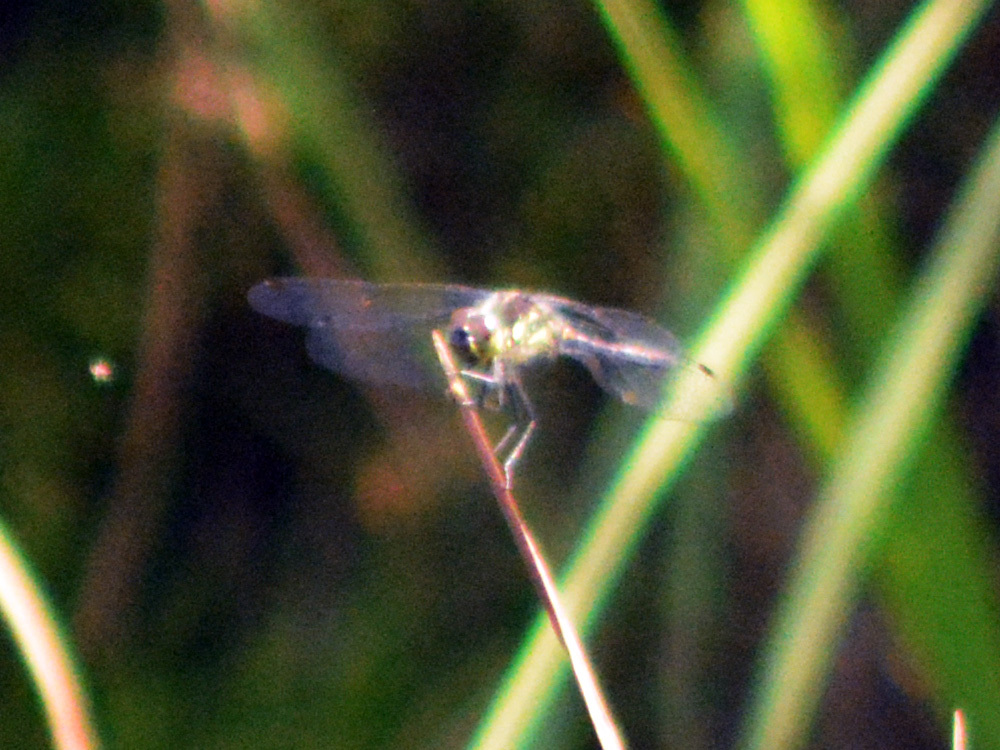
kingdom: Animalia
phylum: Arthropoda
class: Insecta
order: Odonata
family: Libellulidae
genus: Sympetrum
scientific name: Sympetrum danae
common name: Black darter
